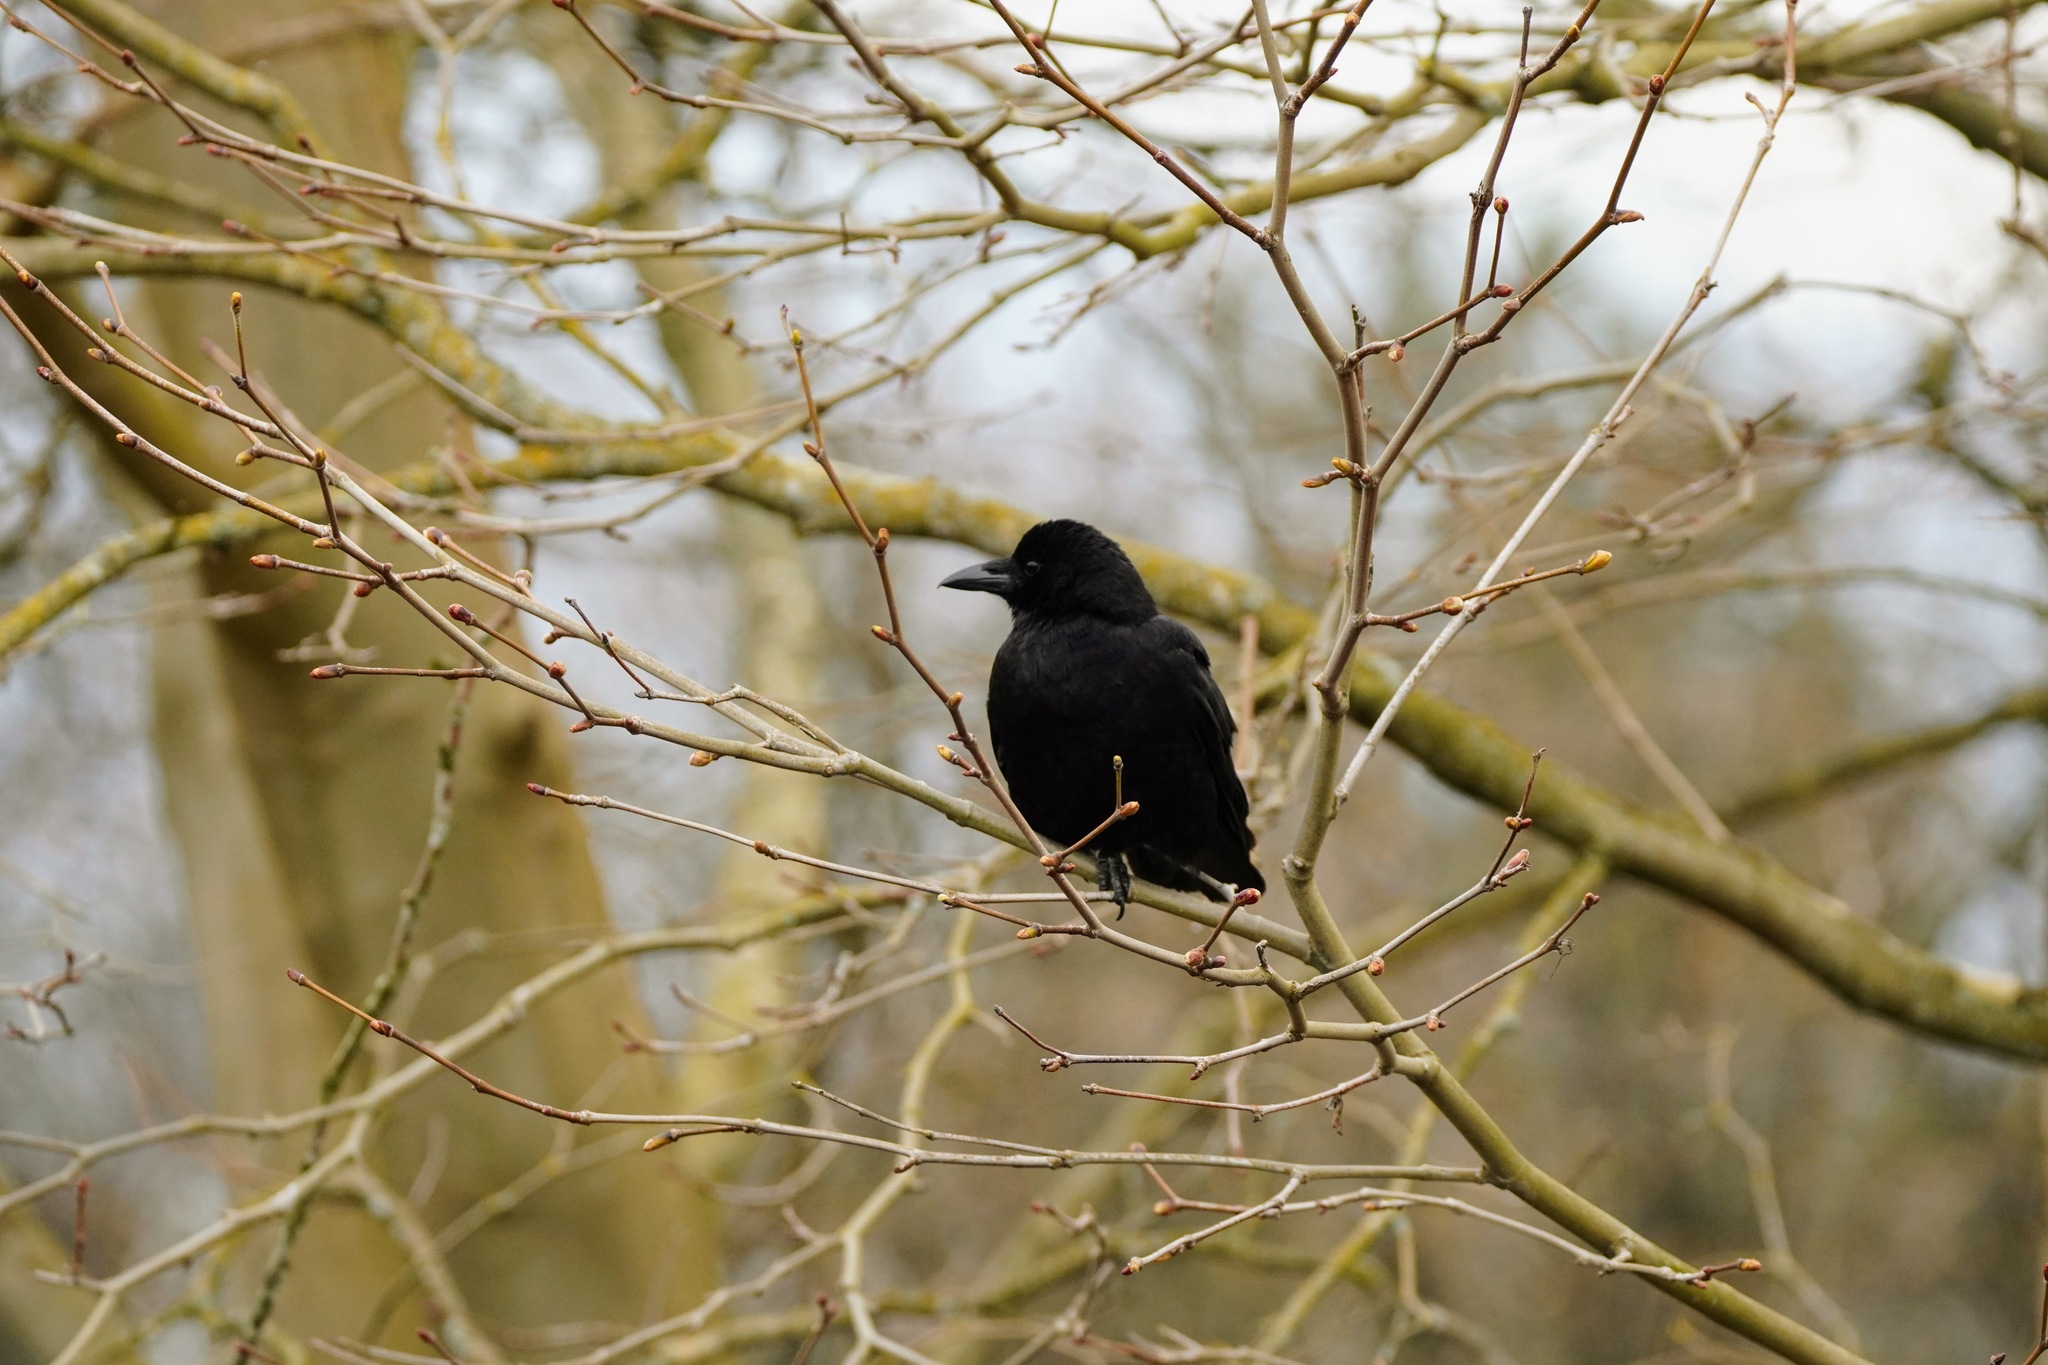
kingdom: Animalia
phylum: Chordata
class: Aves
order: Passeriformes
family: Corvidae
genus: Corvus
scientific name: Corvus brachyrhynchos
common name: American crow
